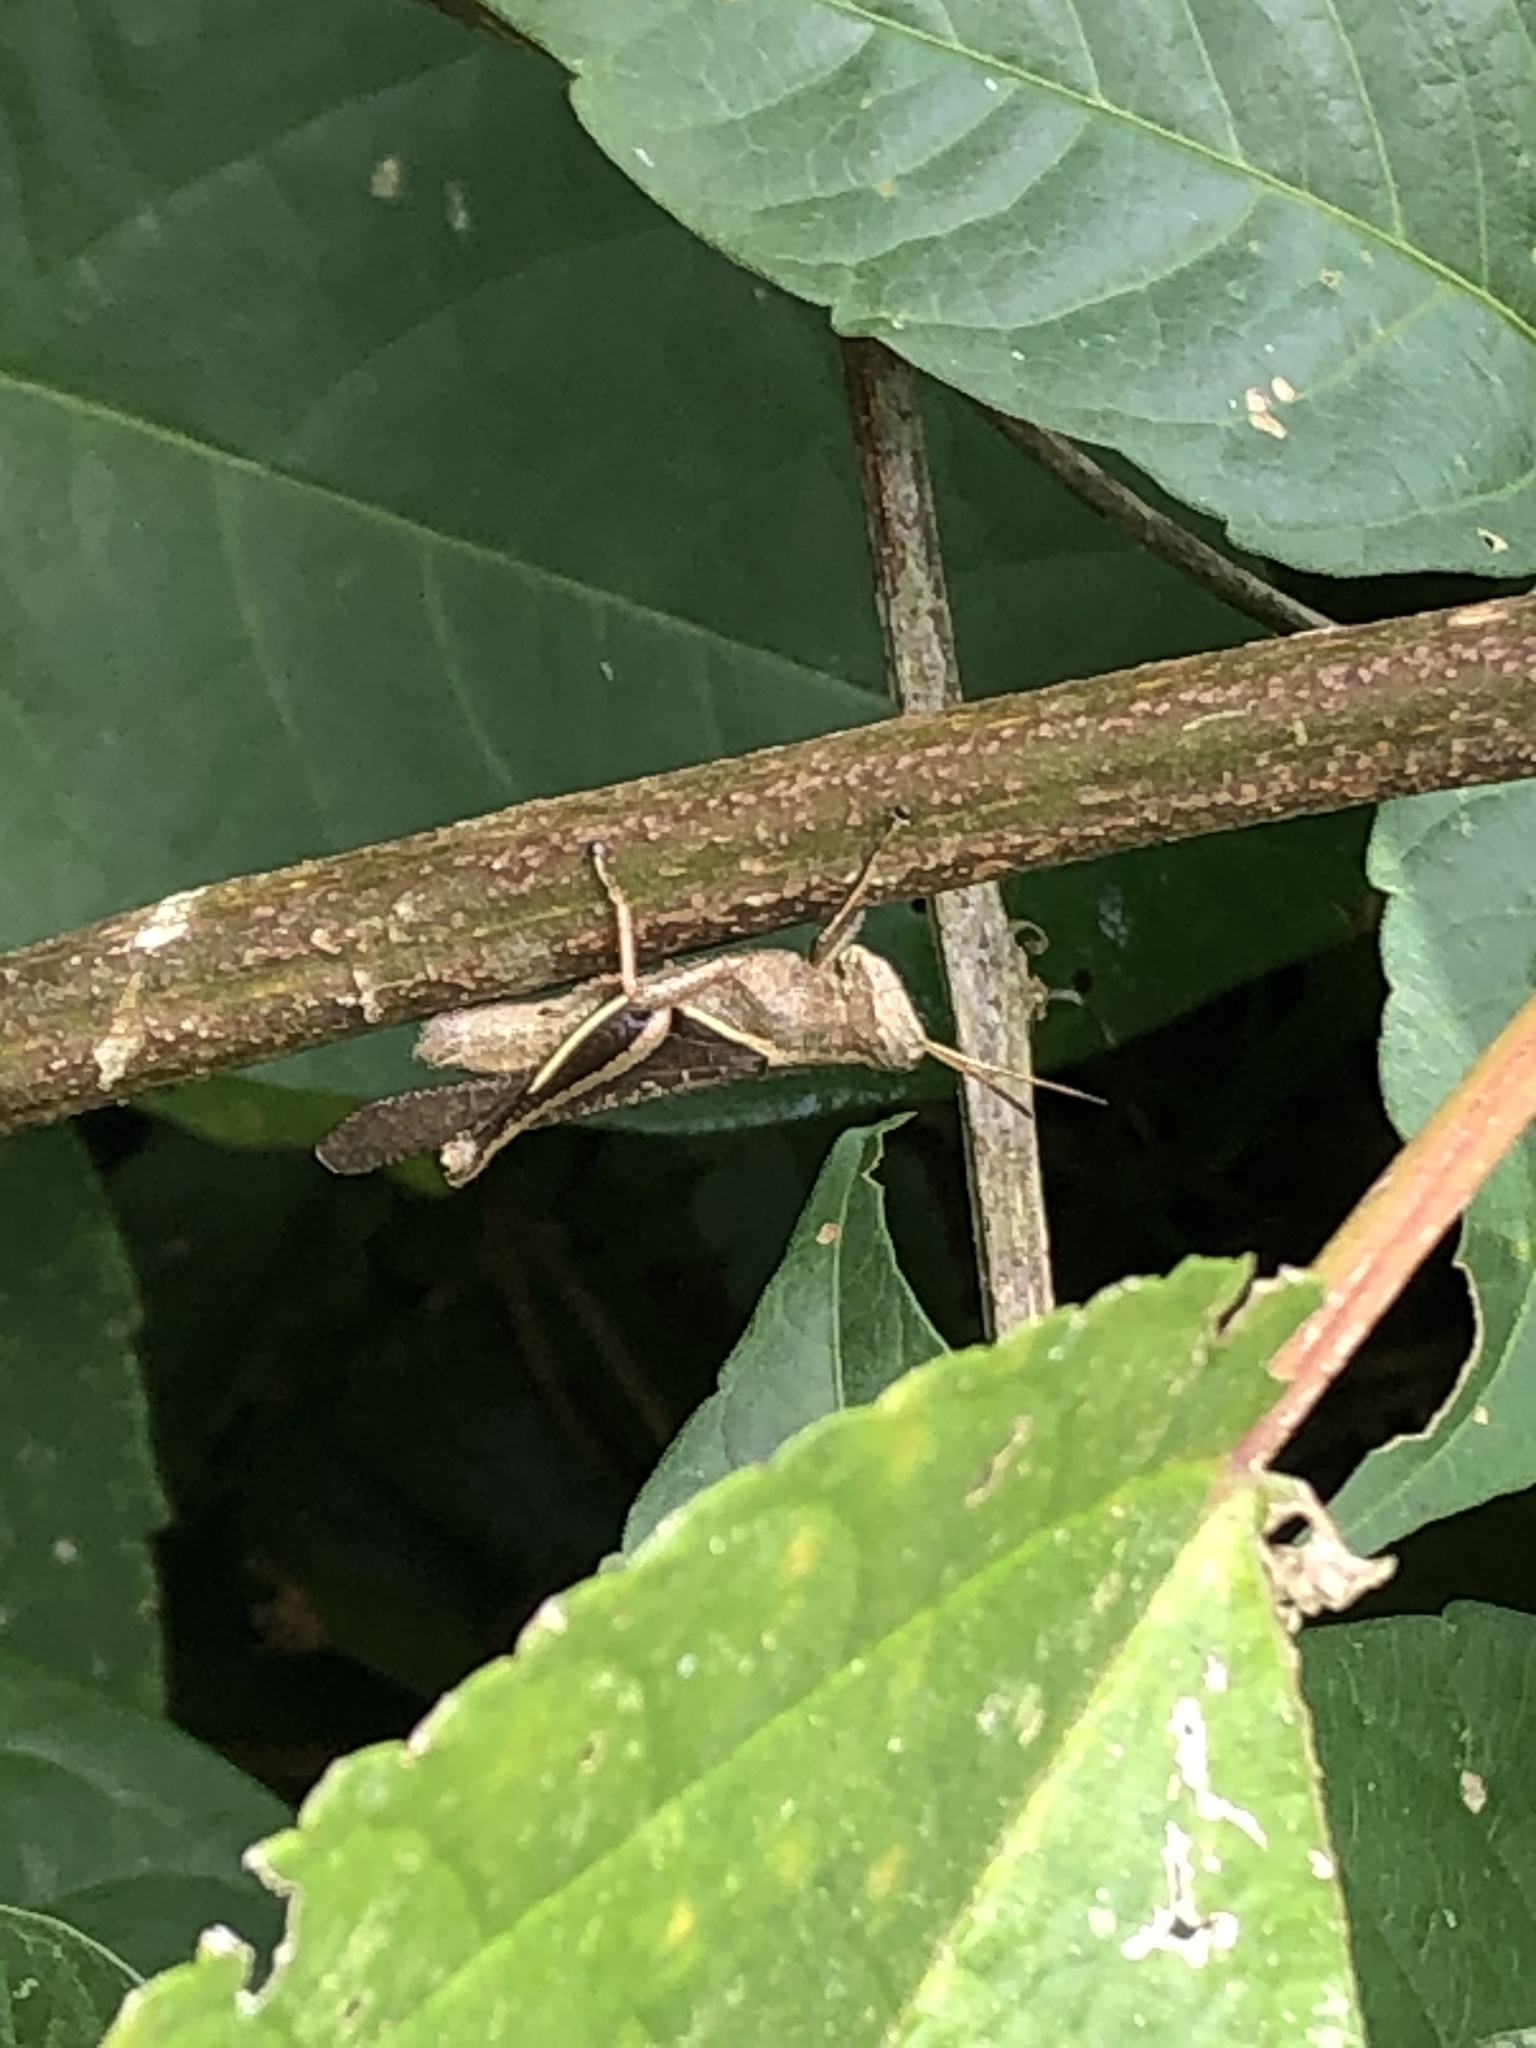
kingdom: Animalia
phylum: Arthropoda
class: Insecta
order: Orthoptera
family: Acrididae
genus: Abracris
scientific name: Abracris flavolineata
